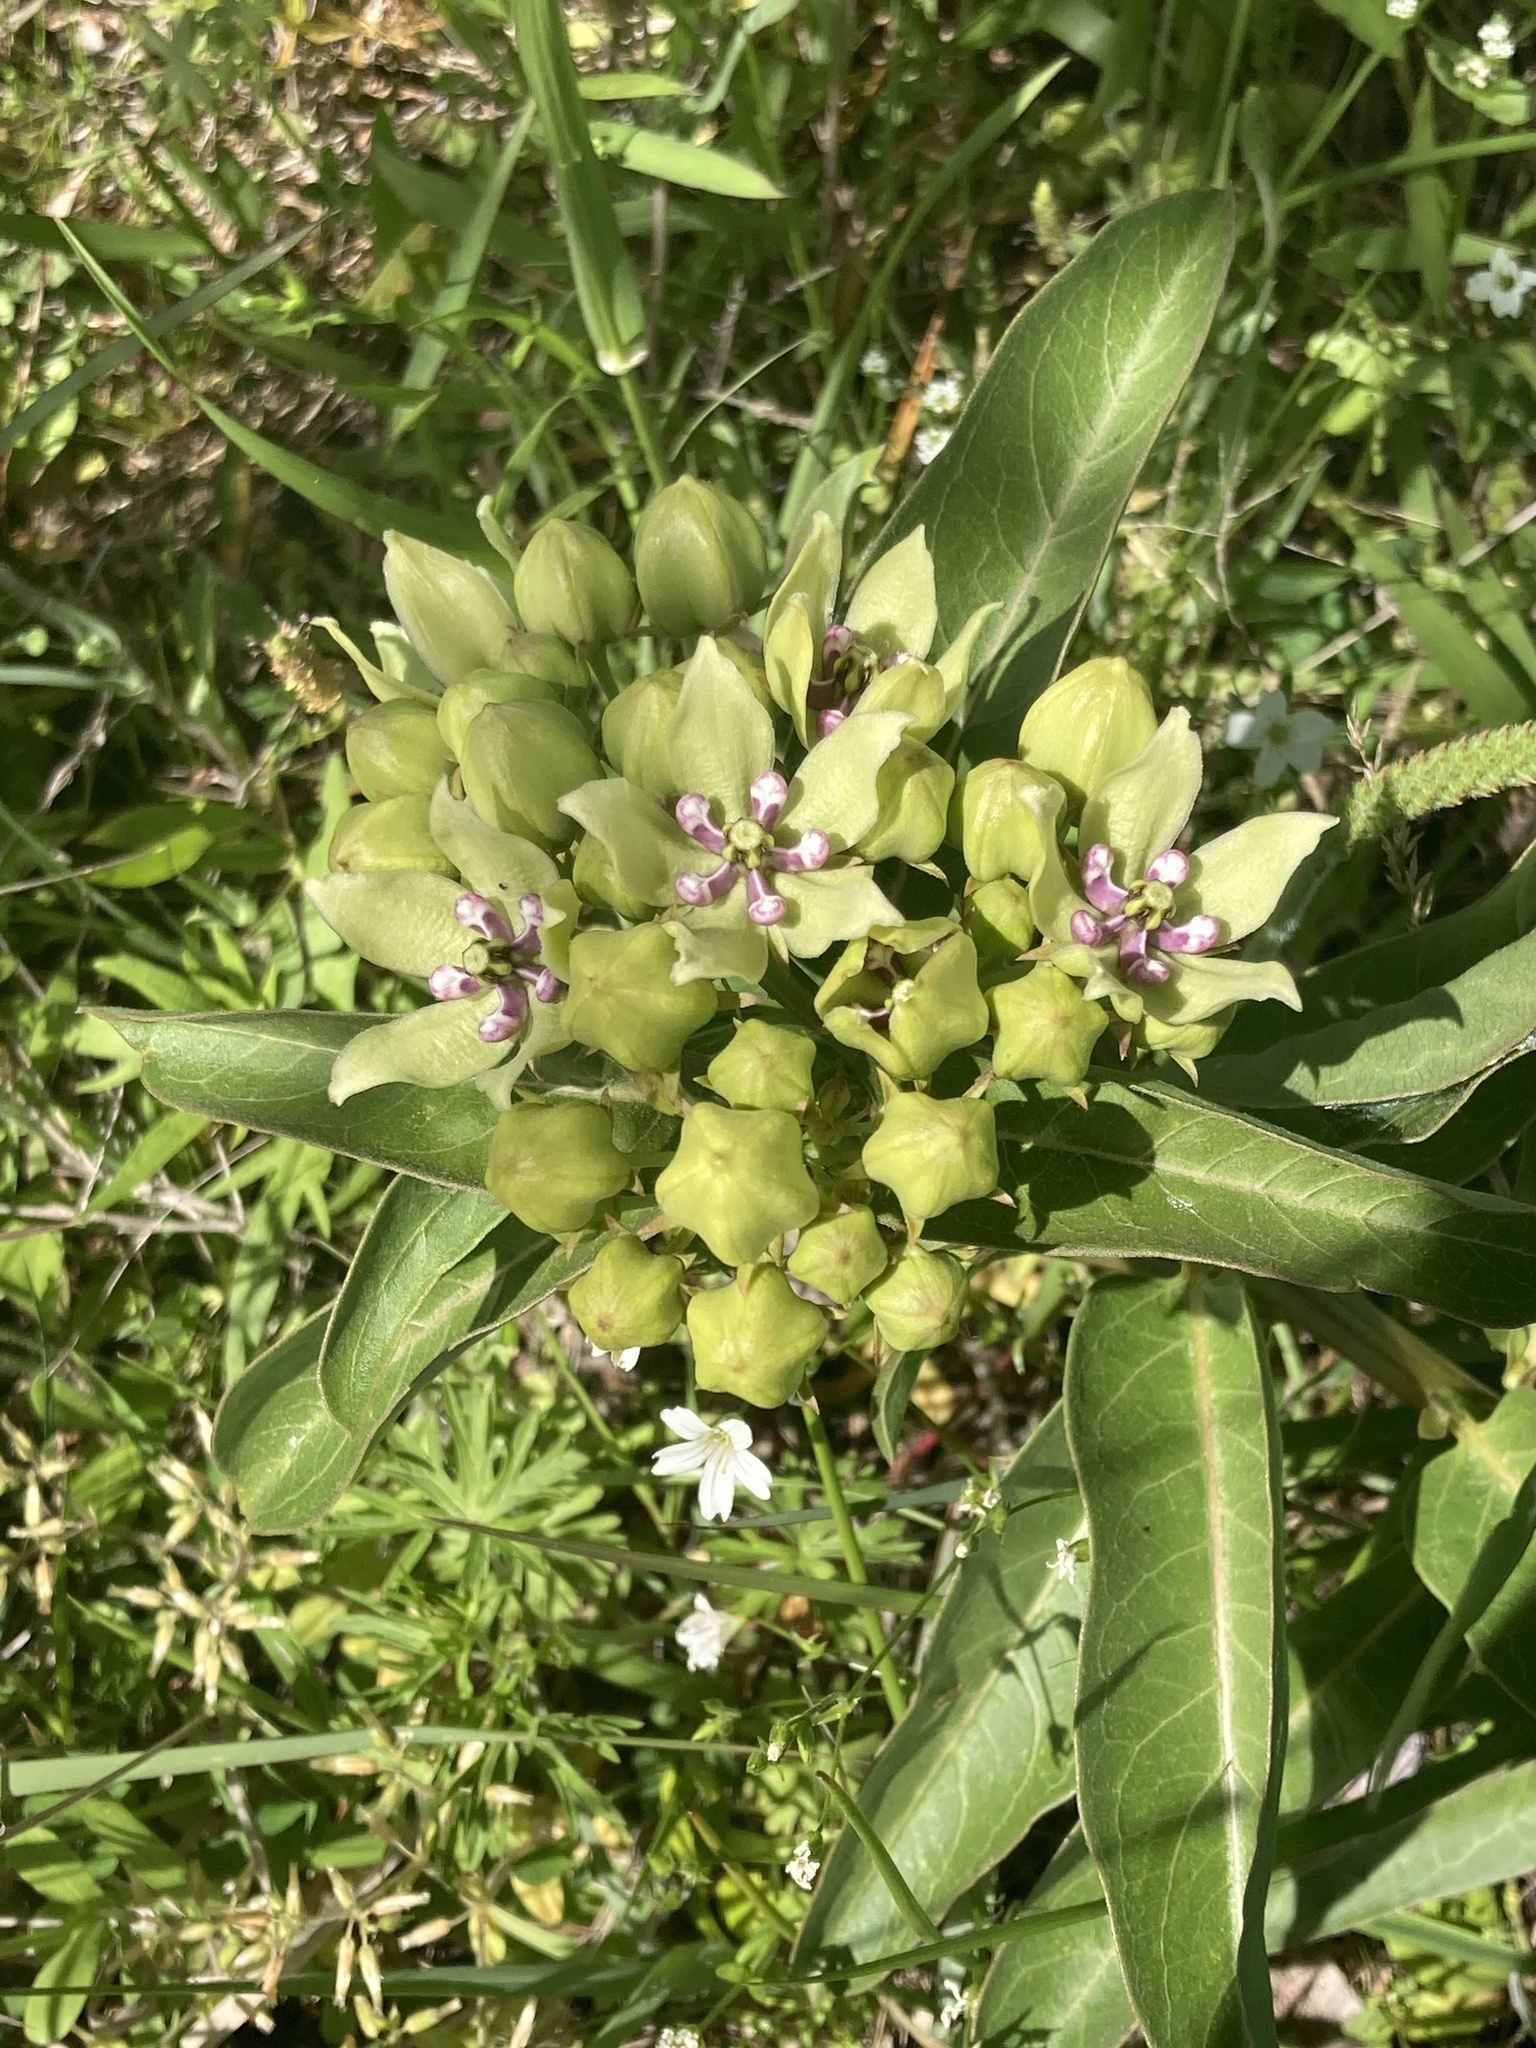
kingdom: Plantae
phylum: Tracheophyta
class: Magnoliopsida
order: Gentianales
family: Apocynaceae
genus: Asclepias
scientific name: Asclepias viridis
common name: Antelope-horns
